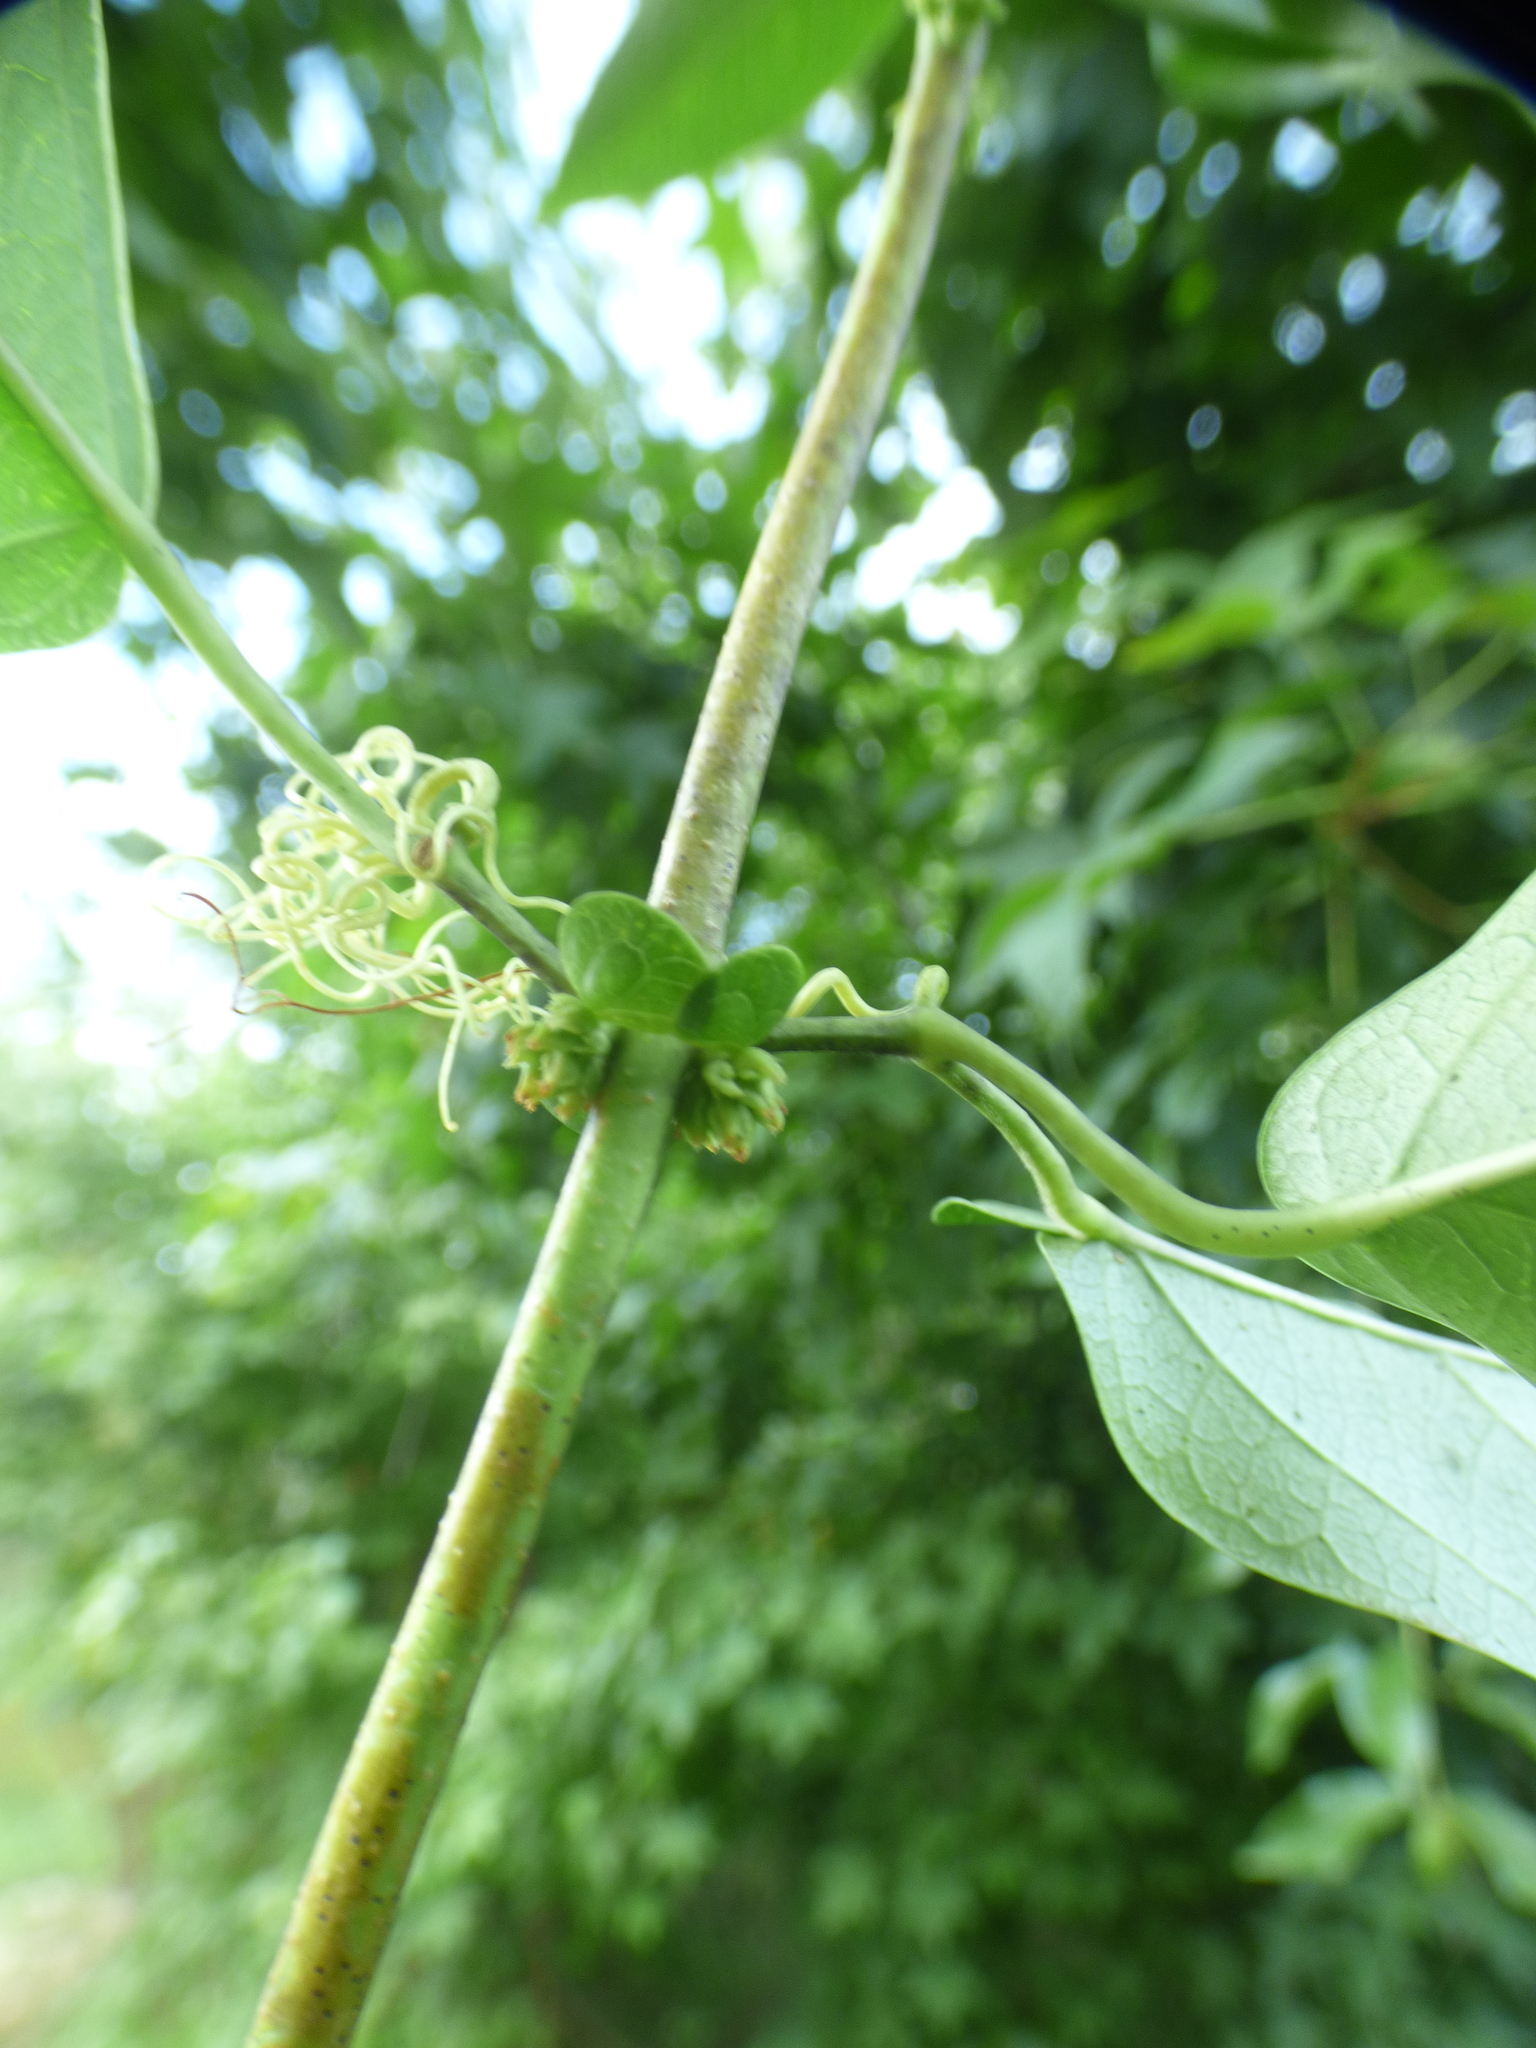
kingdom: Plantae
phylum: Tracheophyta
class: Magnoliopsida
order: Lamiales
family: Bignoniaceae
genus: Bignonia
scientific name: Bignonia capreolata
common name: Crossvine
